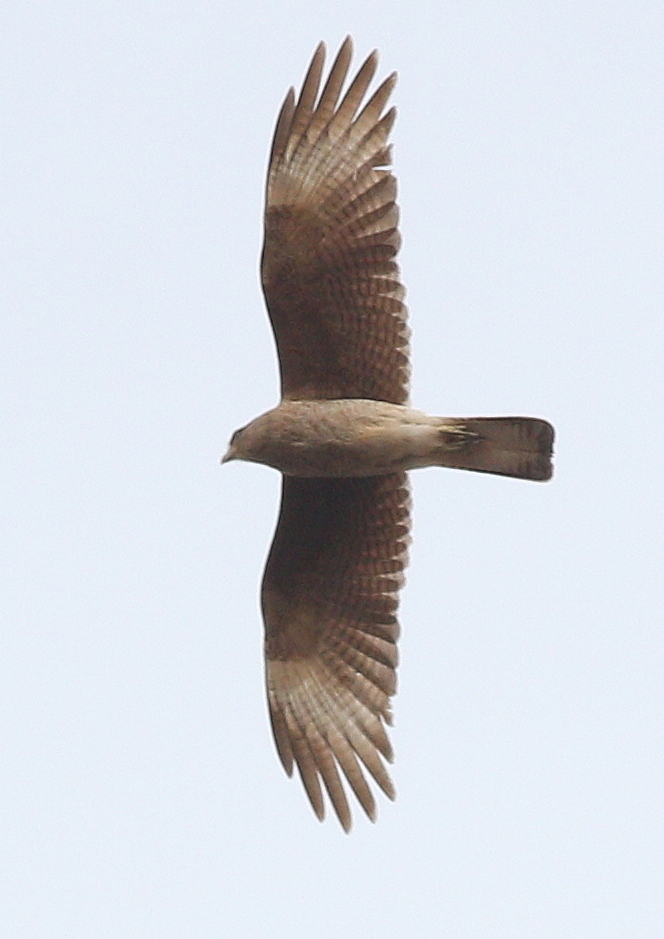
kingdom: Animalia
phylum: Chordata
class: Aves
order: Falconiformes
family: Falconidae
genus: Daptrius
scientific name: Daptrius
